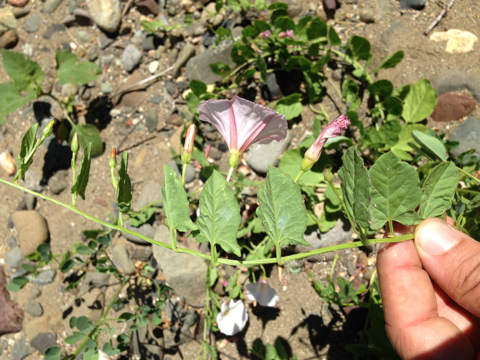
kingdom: Plantae
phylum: Tracheophyta
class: Magnoliopsida
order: Solanales
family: Convolvulaceae
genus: Convolvulus
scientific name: Convolvulus arvensis
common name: Field bindweed
